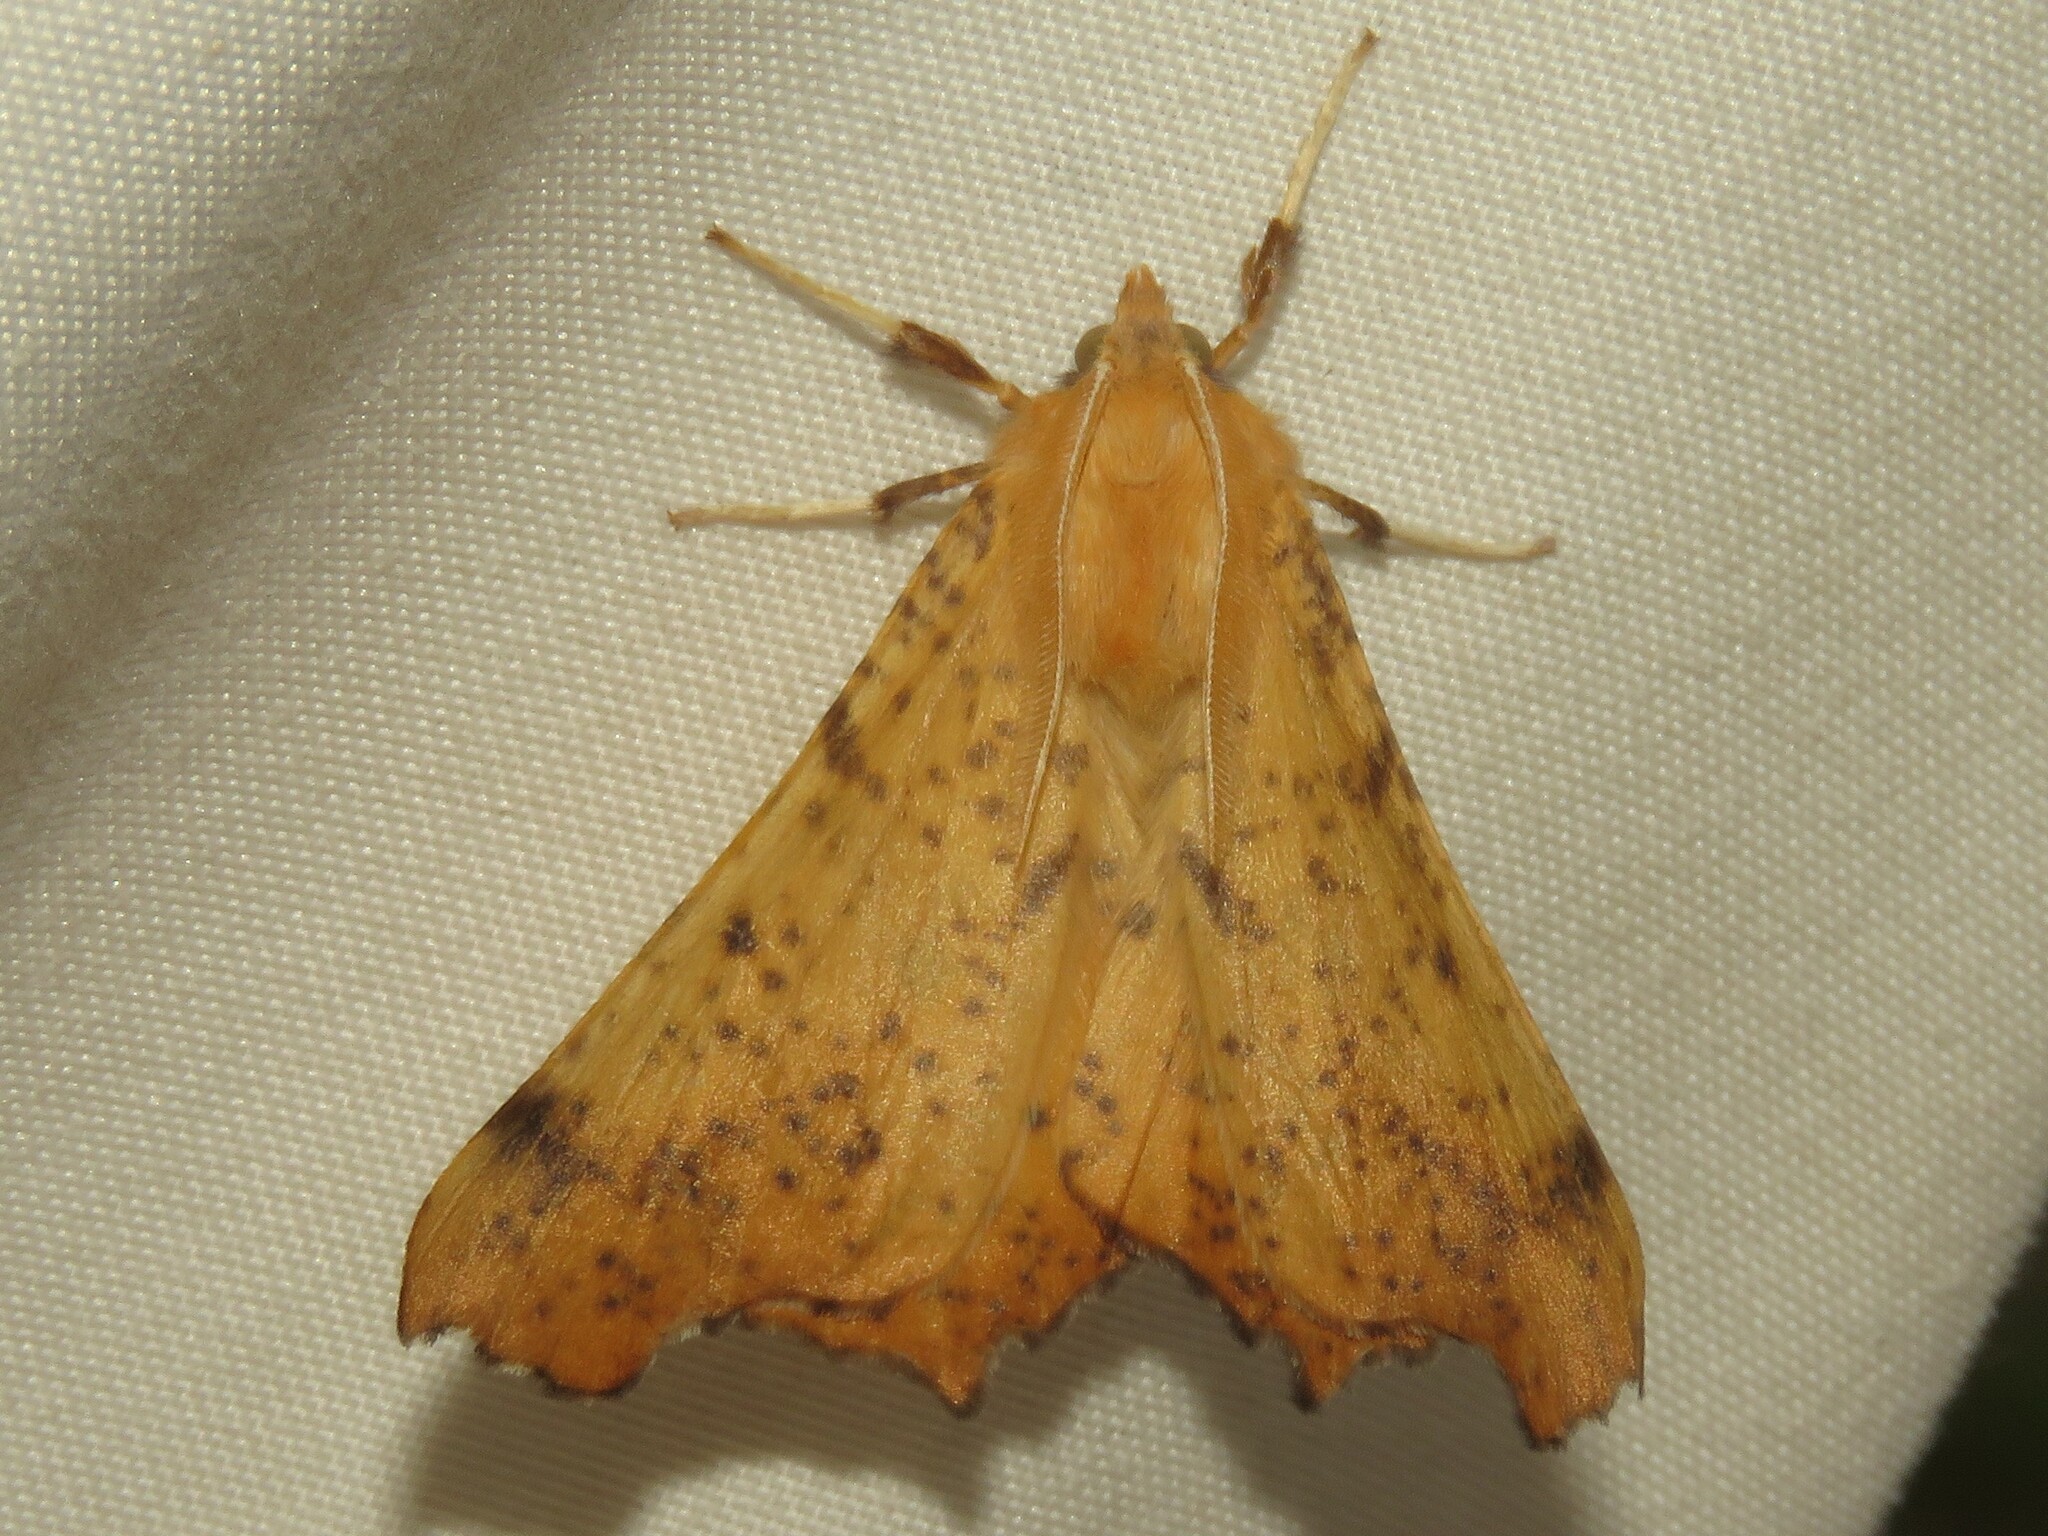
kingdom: Animalia
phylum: Arthropoda
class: Insecta
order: Lepidoptera
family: Geometridae
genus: Ennomos
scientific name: Ennomos magnaria
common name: Maple spanworm
